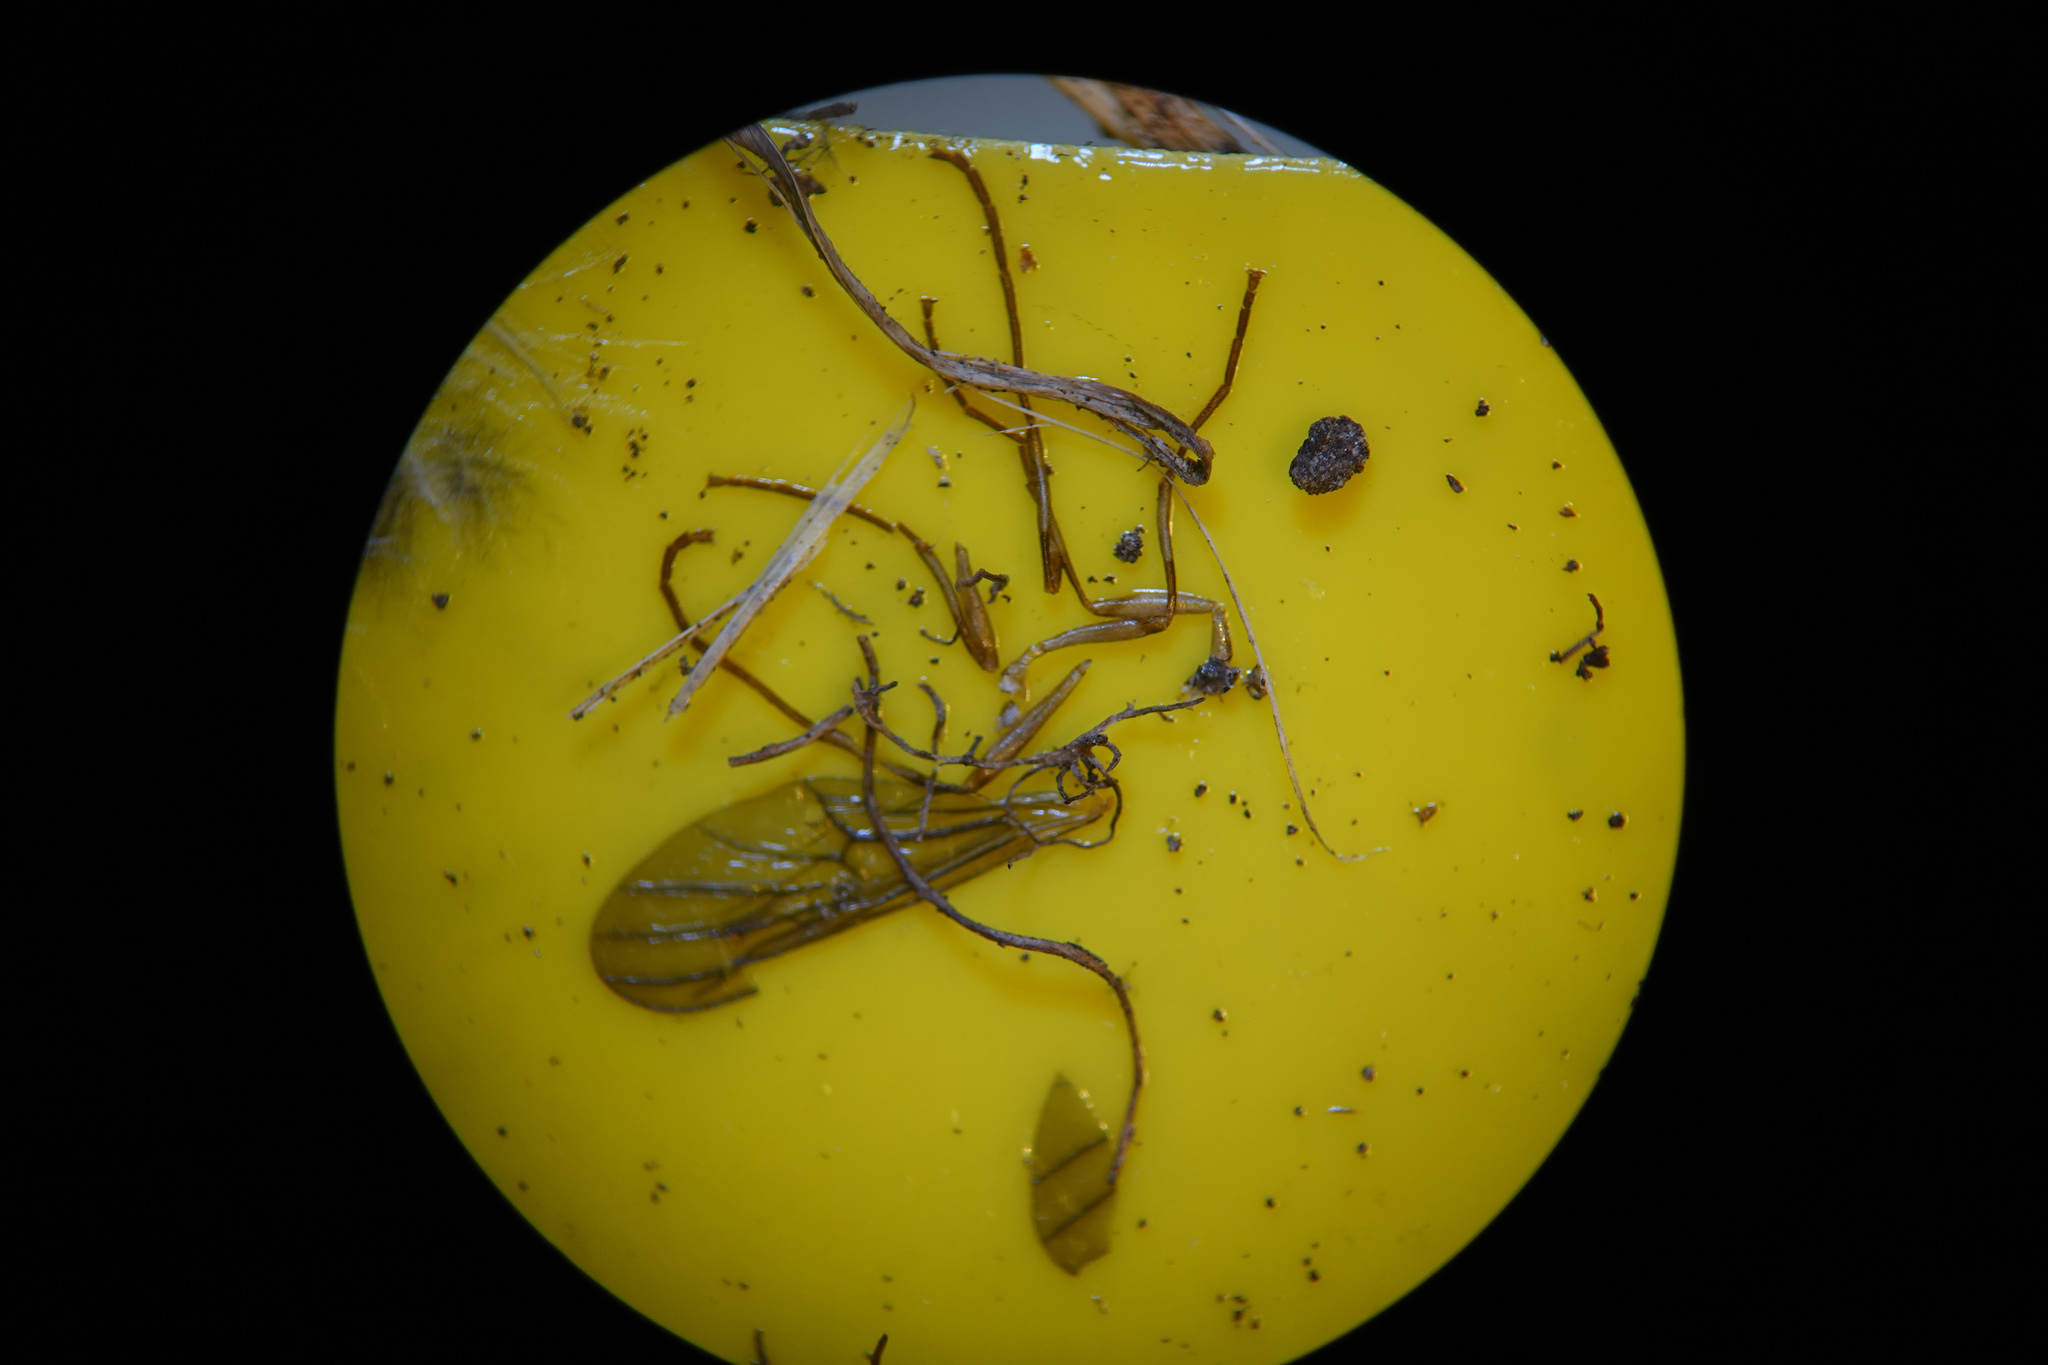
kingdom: Animalia
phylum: Arthropoda
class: Insecta
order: Diptera
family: Stratiomyidae
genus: Boreoides
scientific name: Boreoides tasmaniensis
